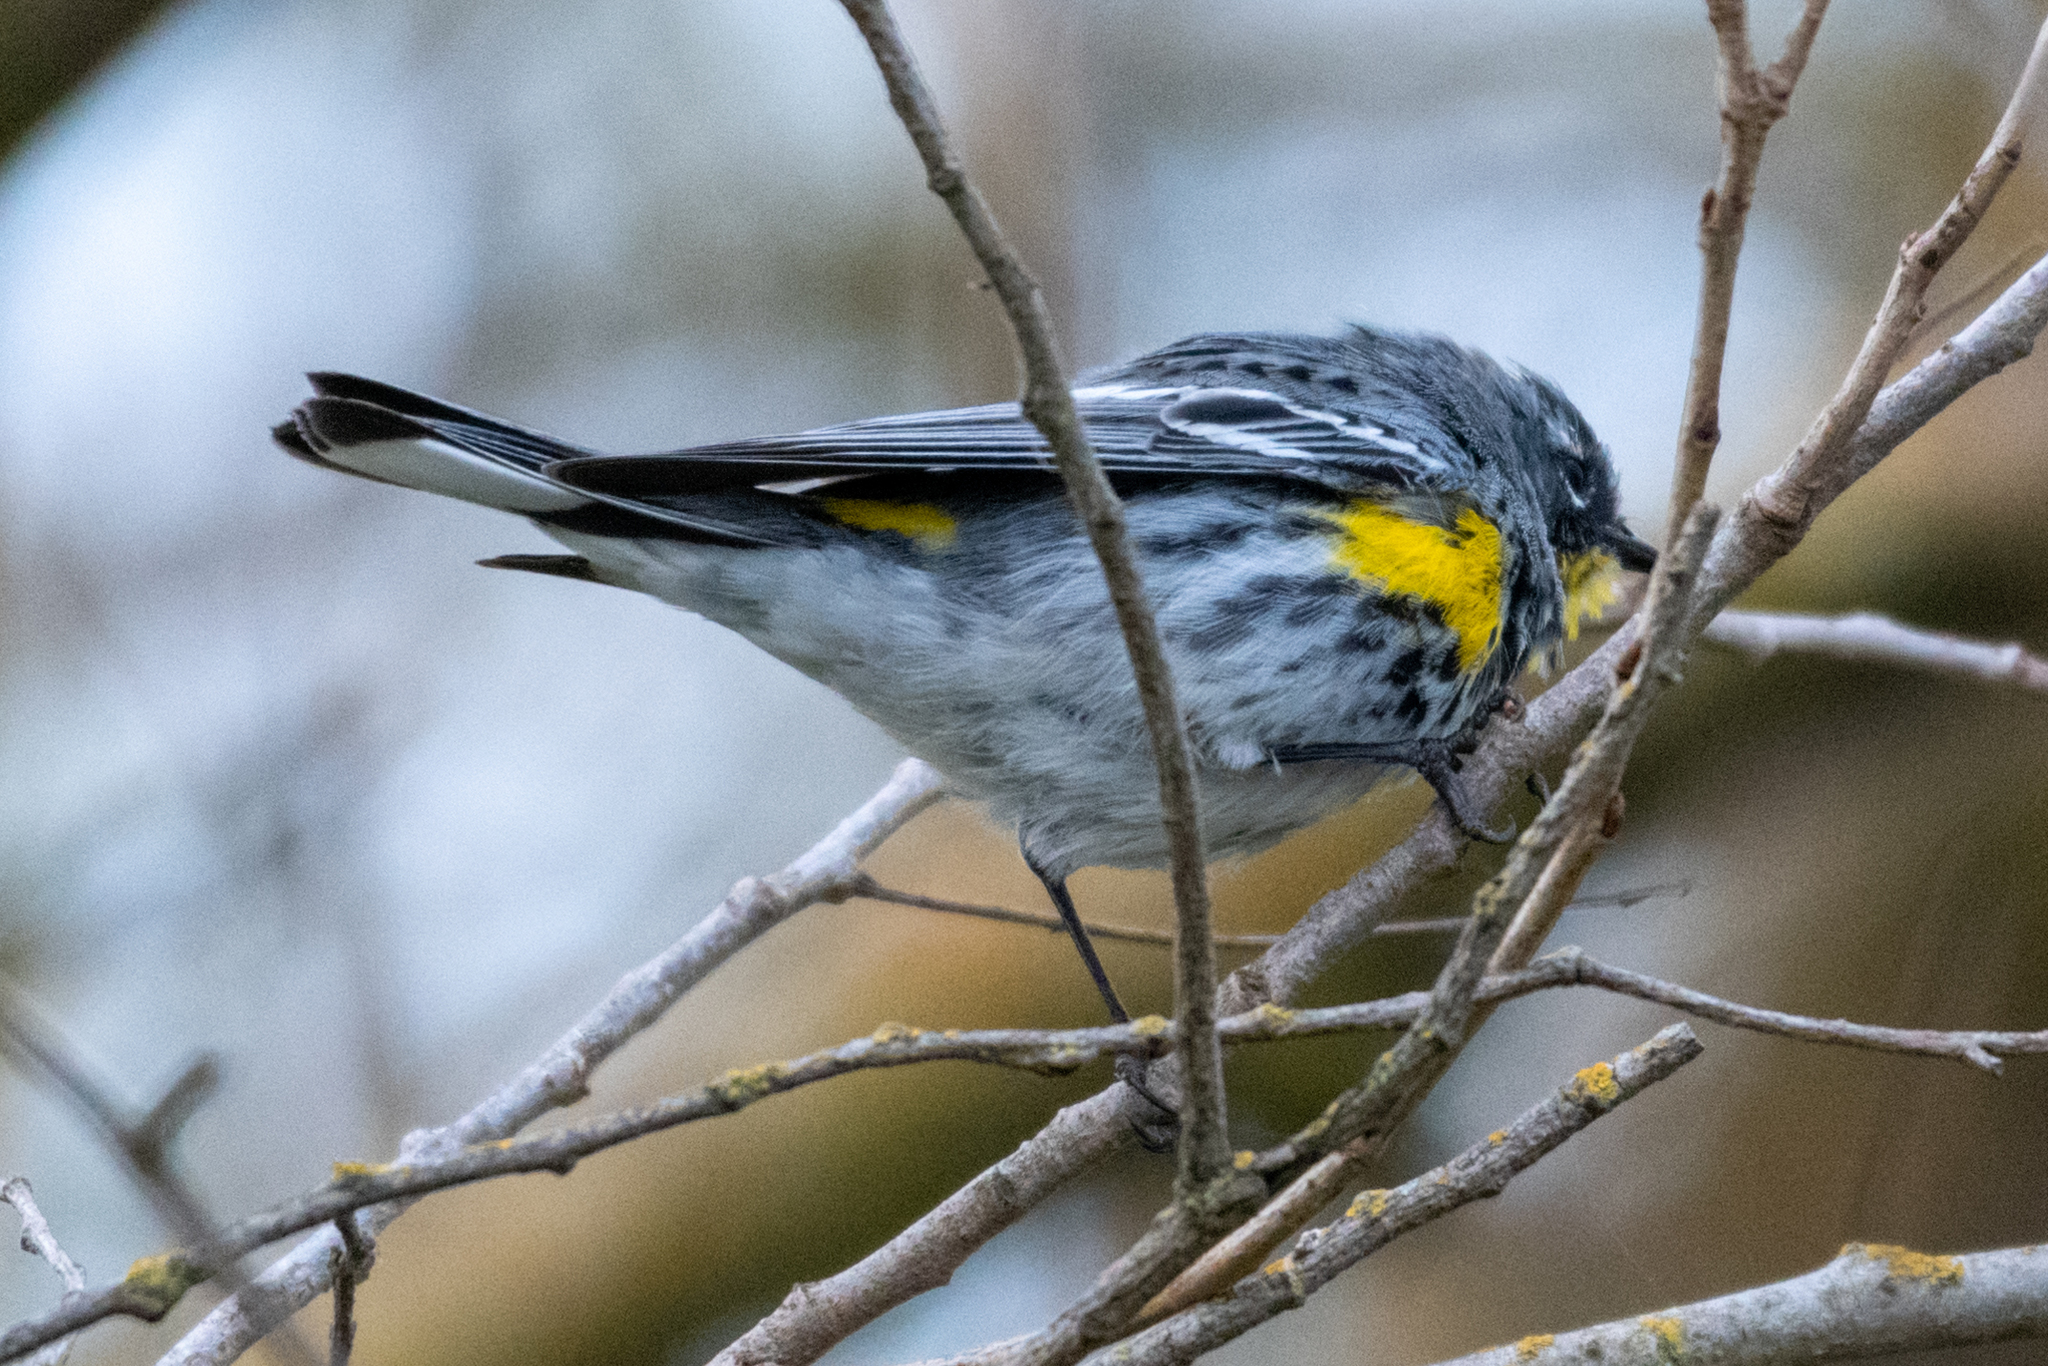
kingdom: Animalia
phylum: Chordata
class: Aves
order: Passeriformes
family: Parulidae
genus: Setophaga
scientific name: Setophaga auduboni
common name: Audubon's warbler
